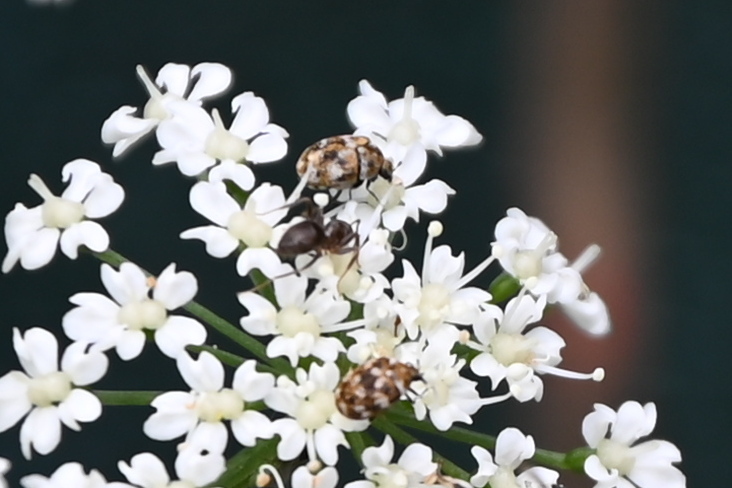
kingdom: Animalia
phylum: Arthropoda
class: Insecta
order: Coleoptera
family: Dermestidae
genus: Anthrenus
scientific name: Anthrenus verbasci
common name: Varied carpet beetle
